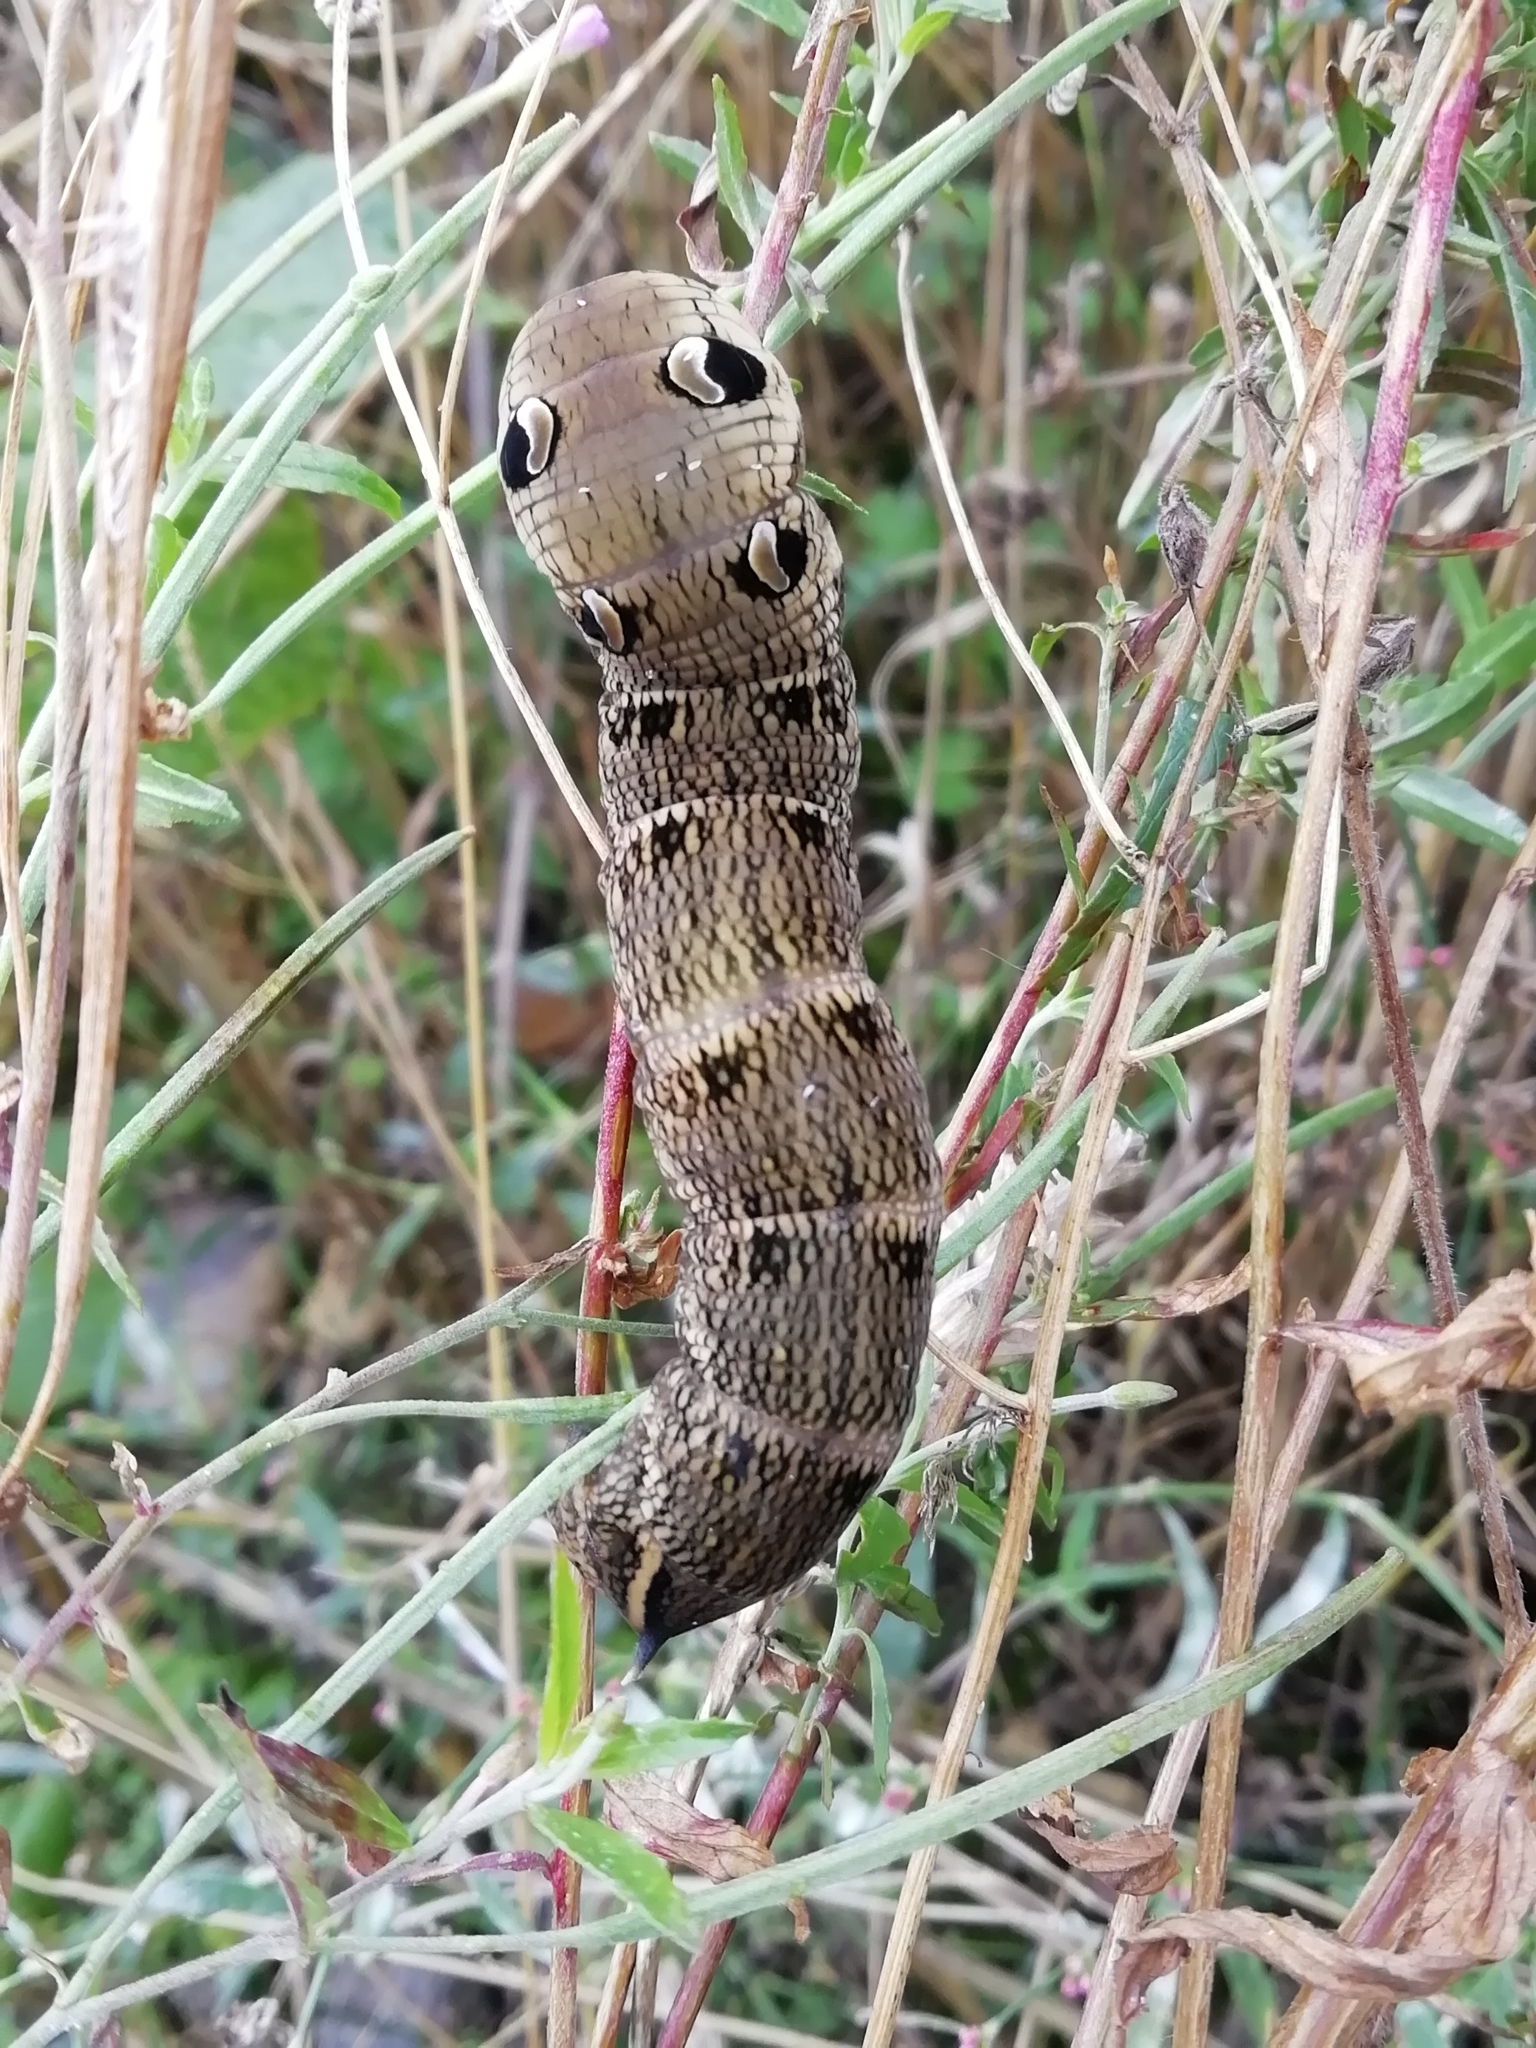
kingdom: Animalia
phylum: Arthropoda
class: Insecta
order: Lepidoptera
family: Sphingidae
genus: Deilephila
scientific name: Deilephila elpenor
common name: Elephant hawk-moth
